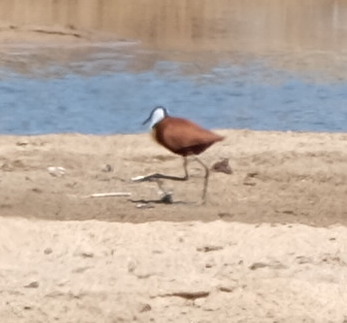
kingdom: Animalia
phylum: Chordata
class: Aves
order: Charadriiformes
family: Jacanidae
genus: Actophilornis
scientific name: Actophilornis africanus
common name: African jacana
